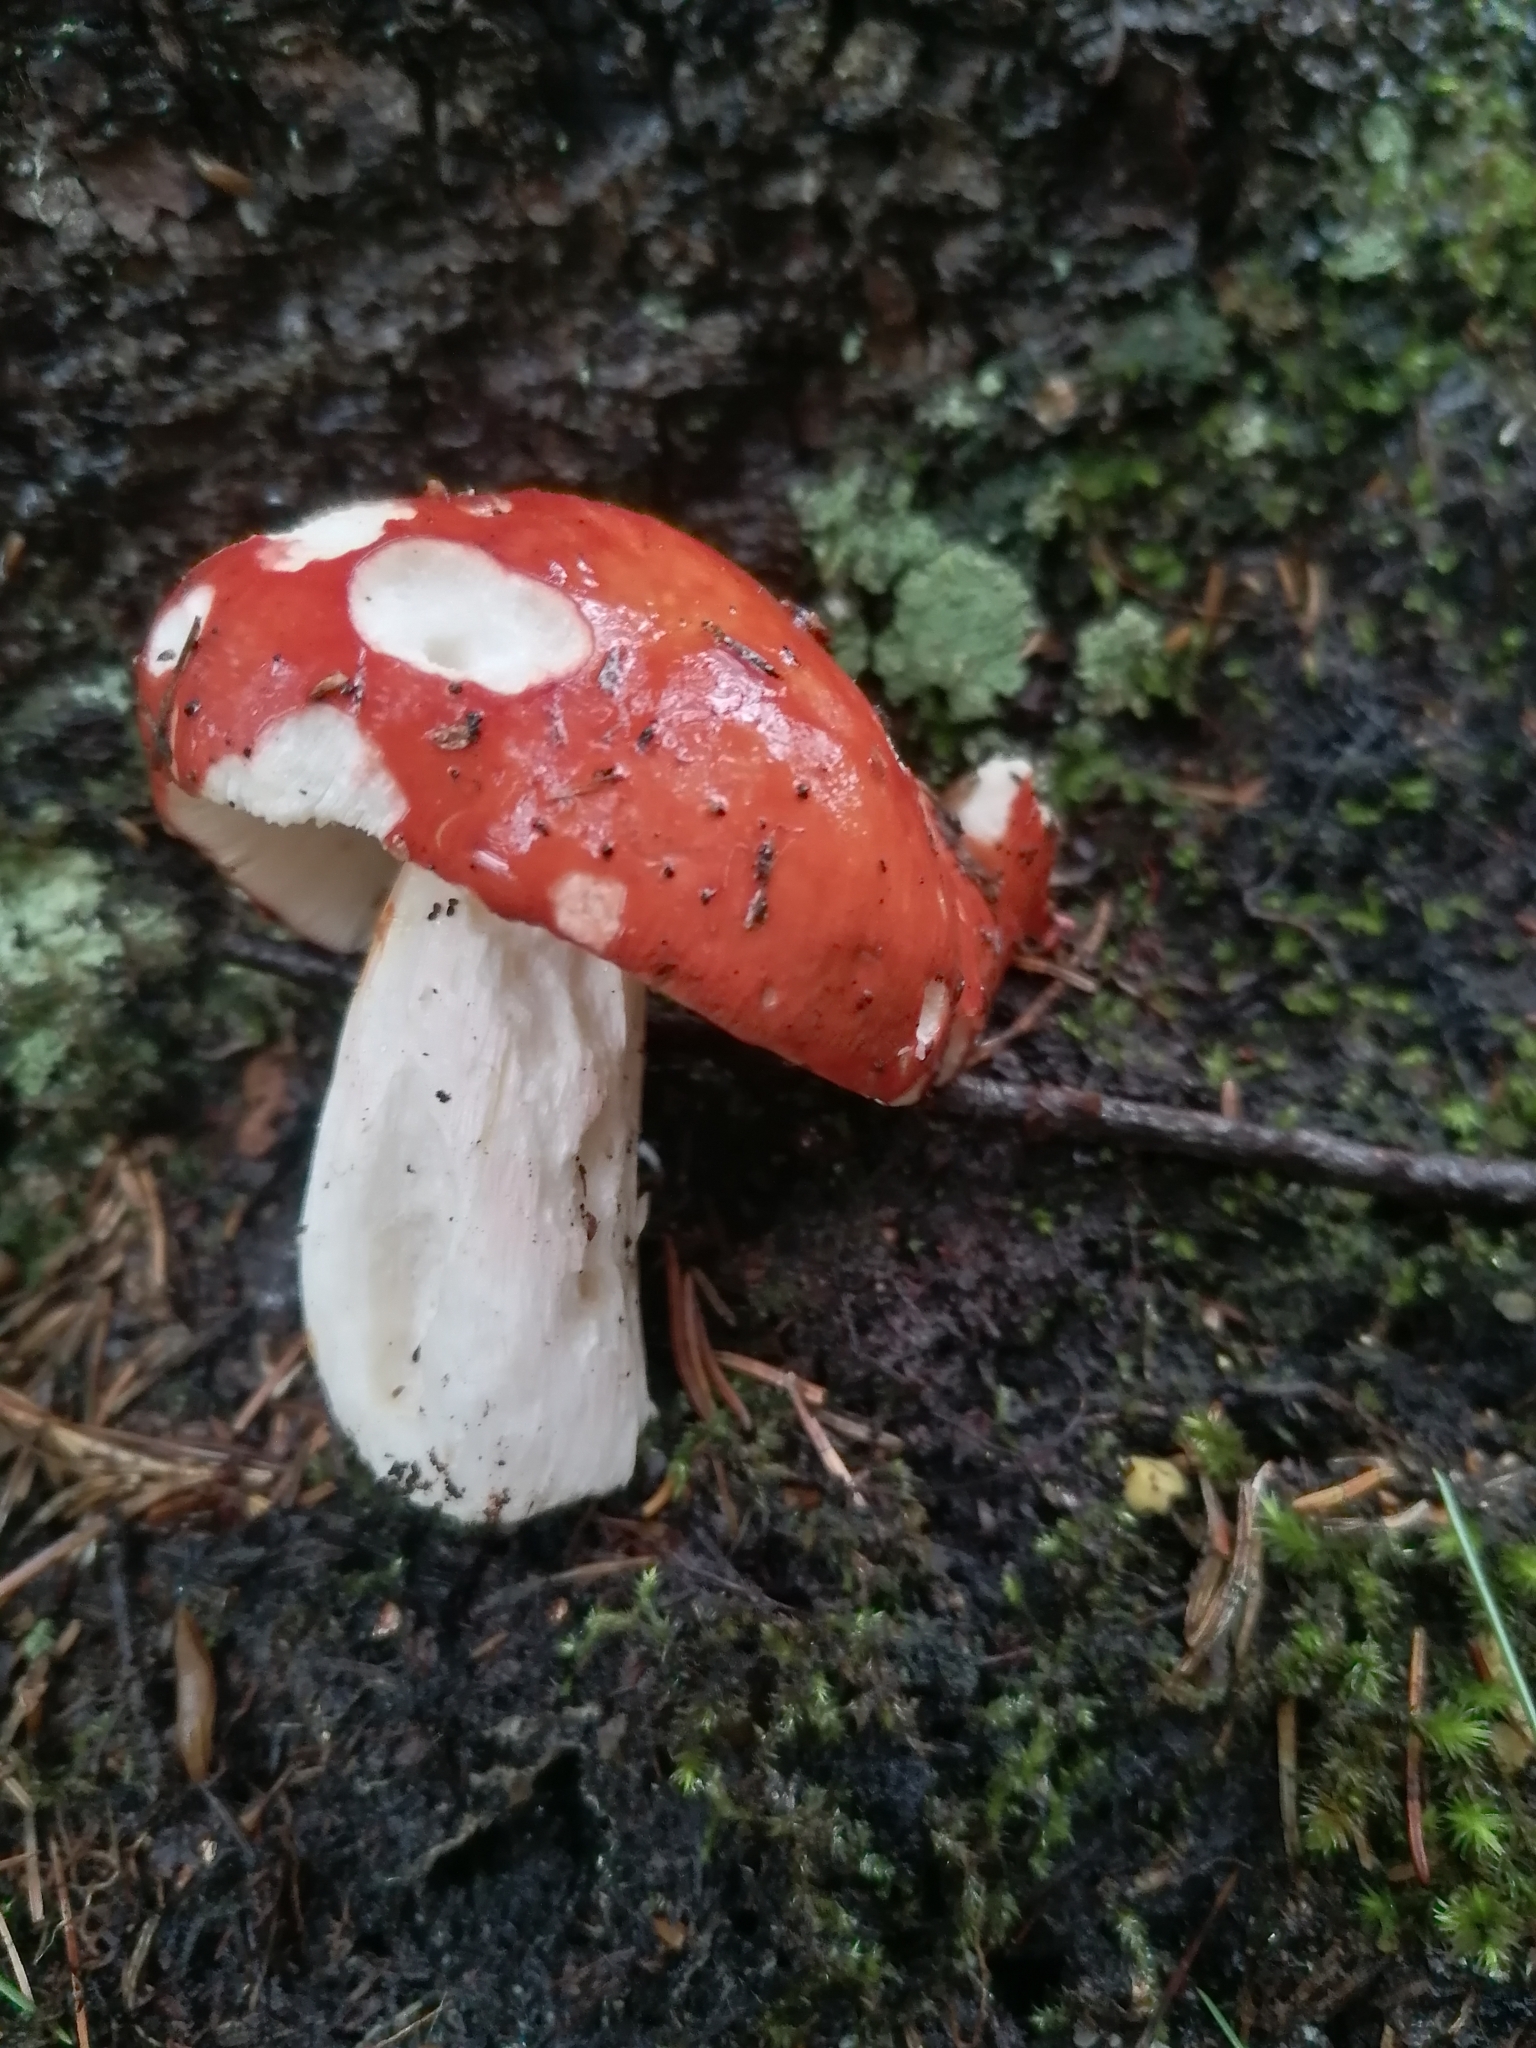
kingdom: Fungi
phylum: Basidiomycota
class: Agaricomycetes
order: Russulales
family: Russulaceae
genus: Russula
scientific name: Russula
